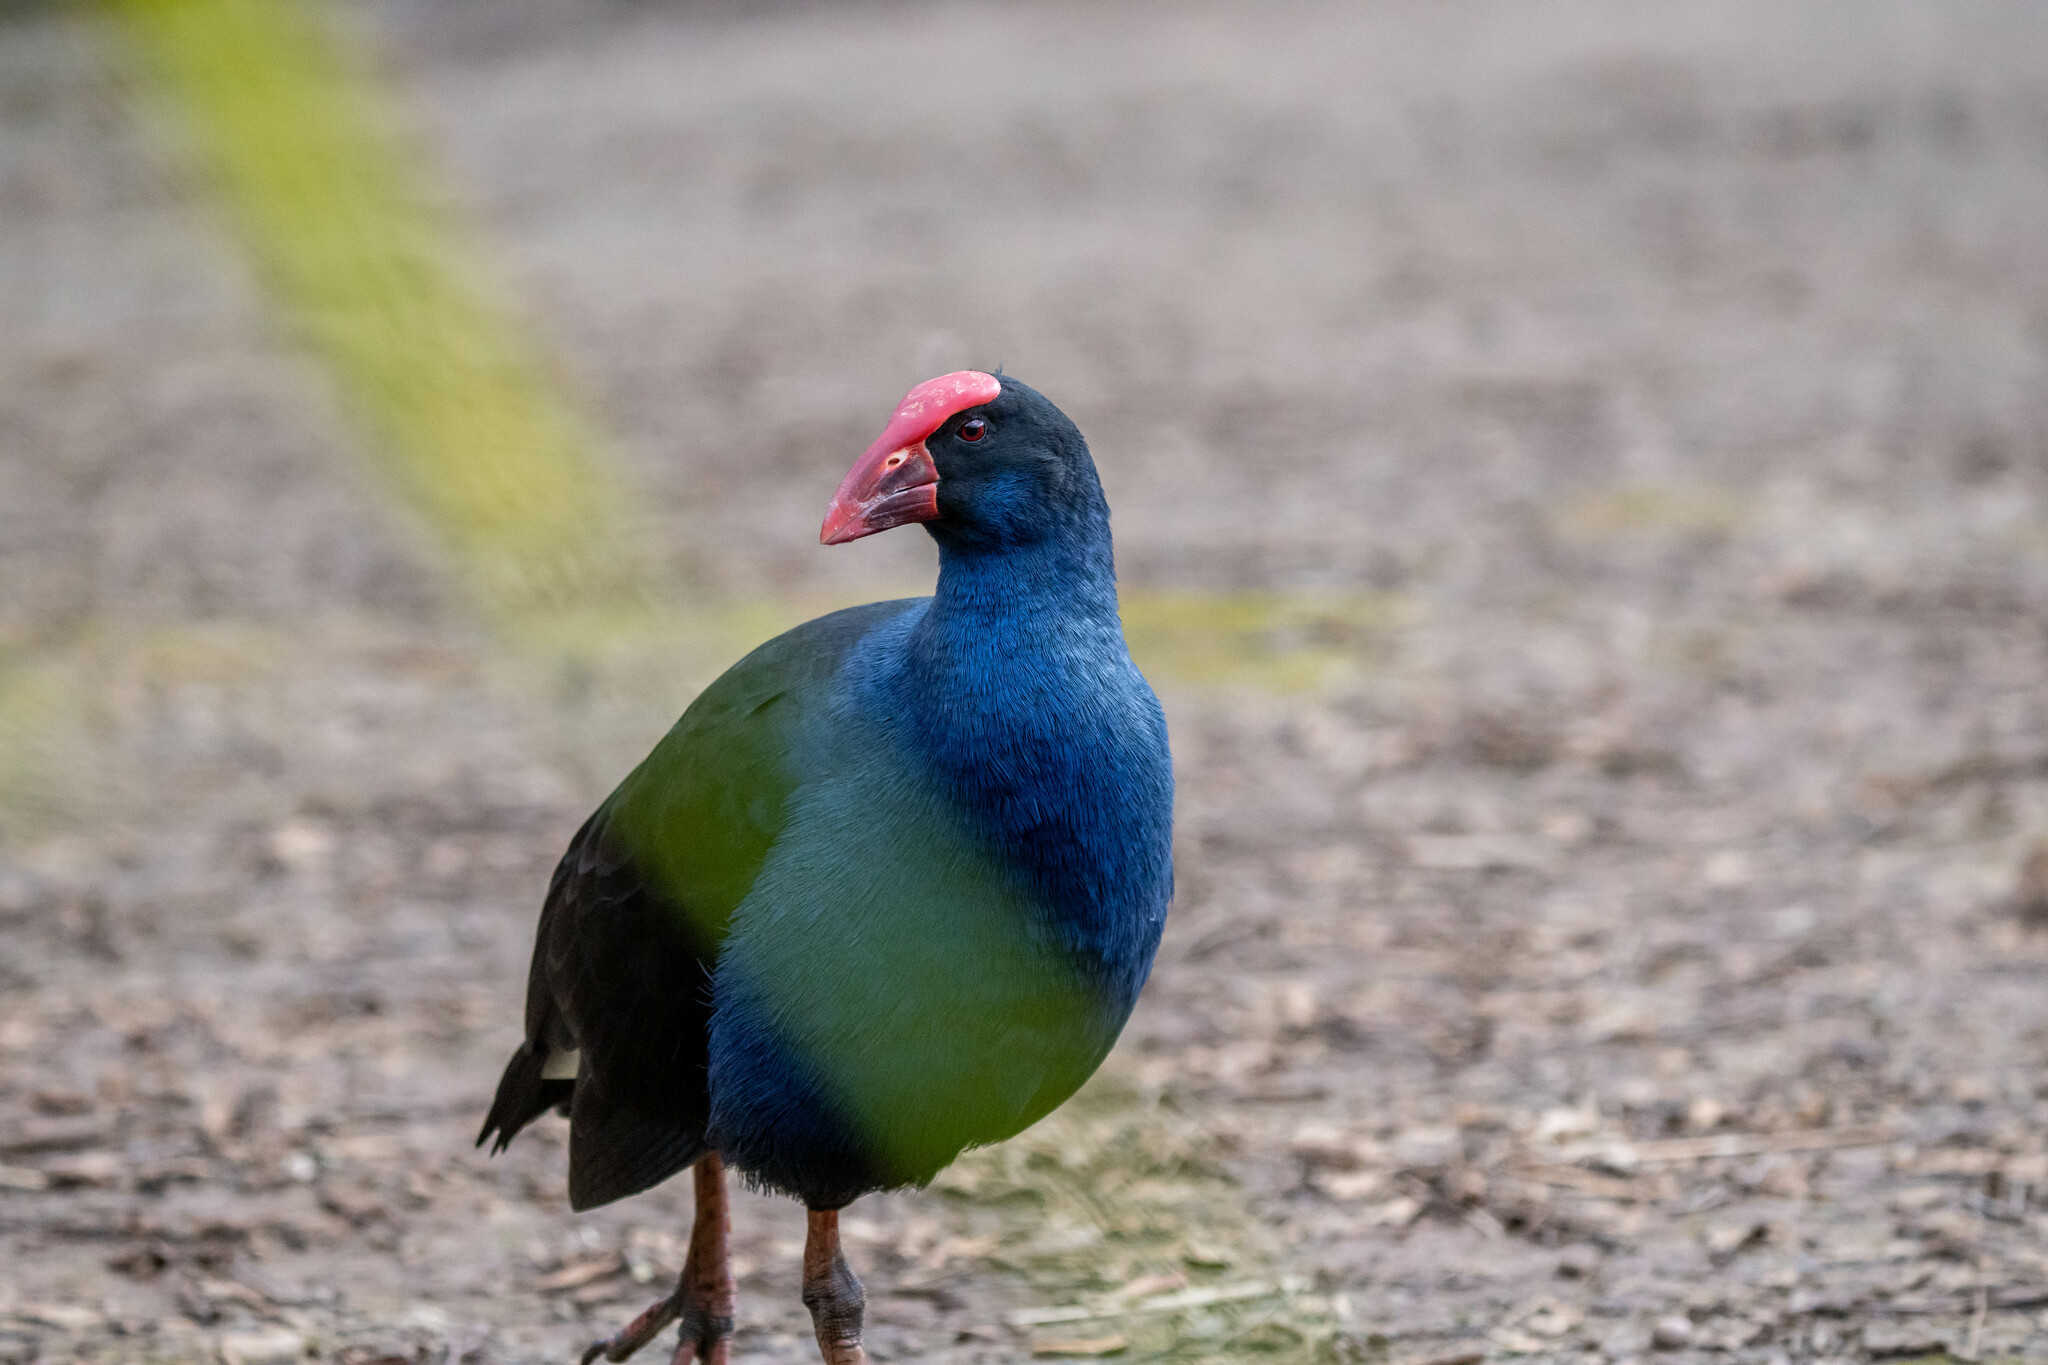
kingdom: Animalia
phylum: Chordata
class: Aves
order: Gruiformes
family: Rallidae
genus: Porphyrio
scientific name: Porphyrio melanotus
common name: Australasian swamphen
